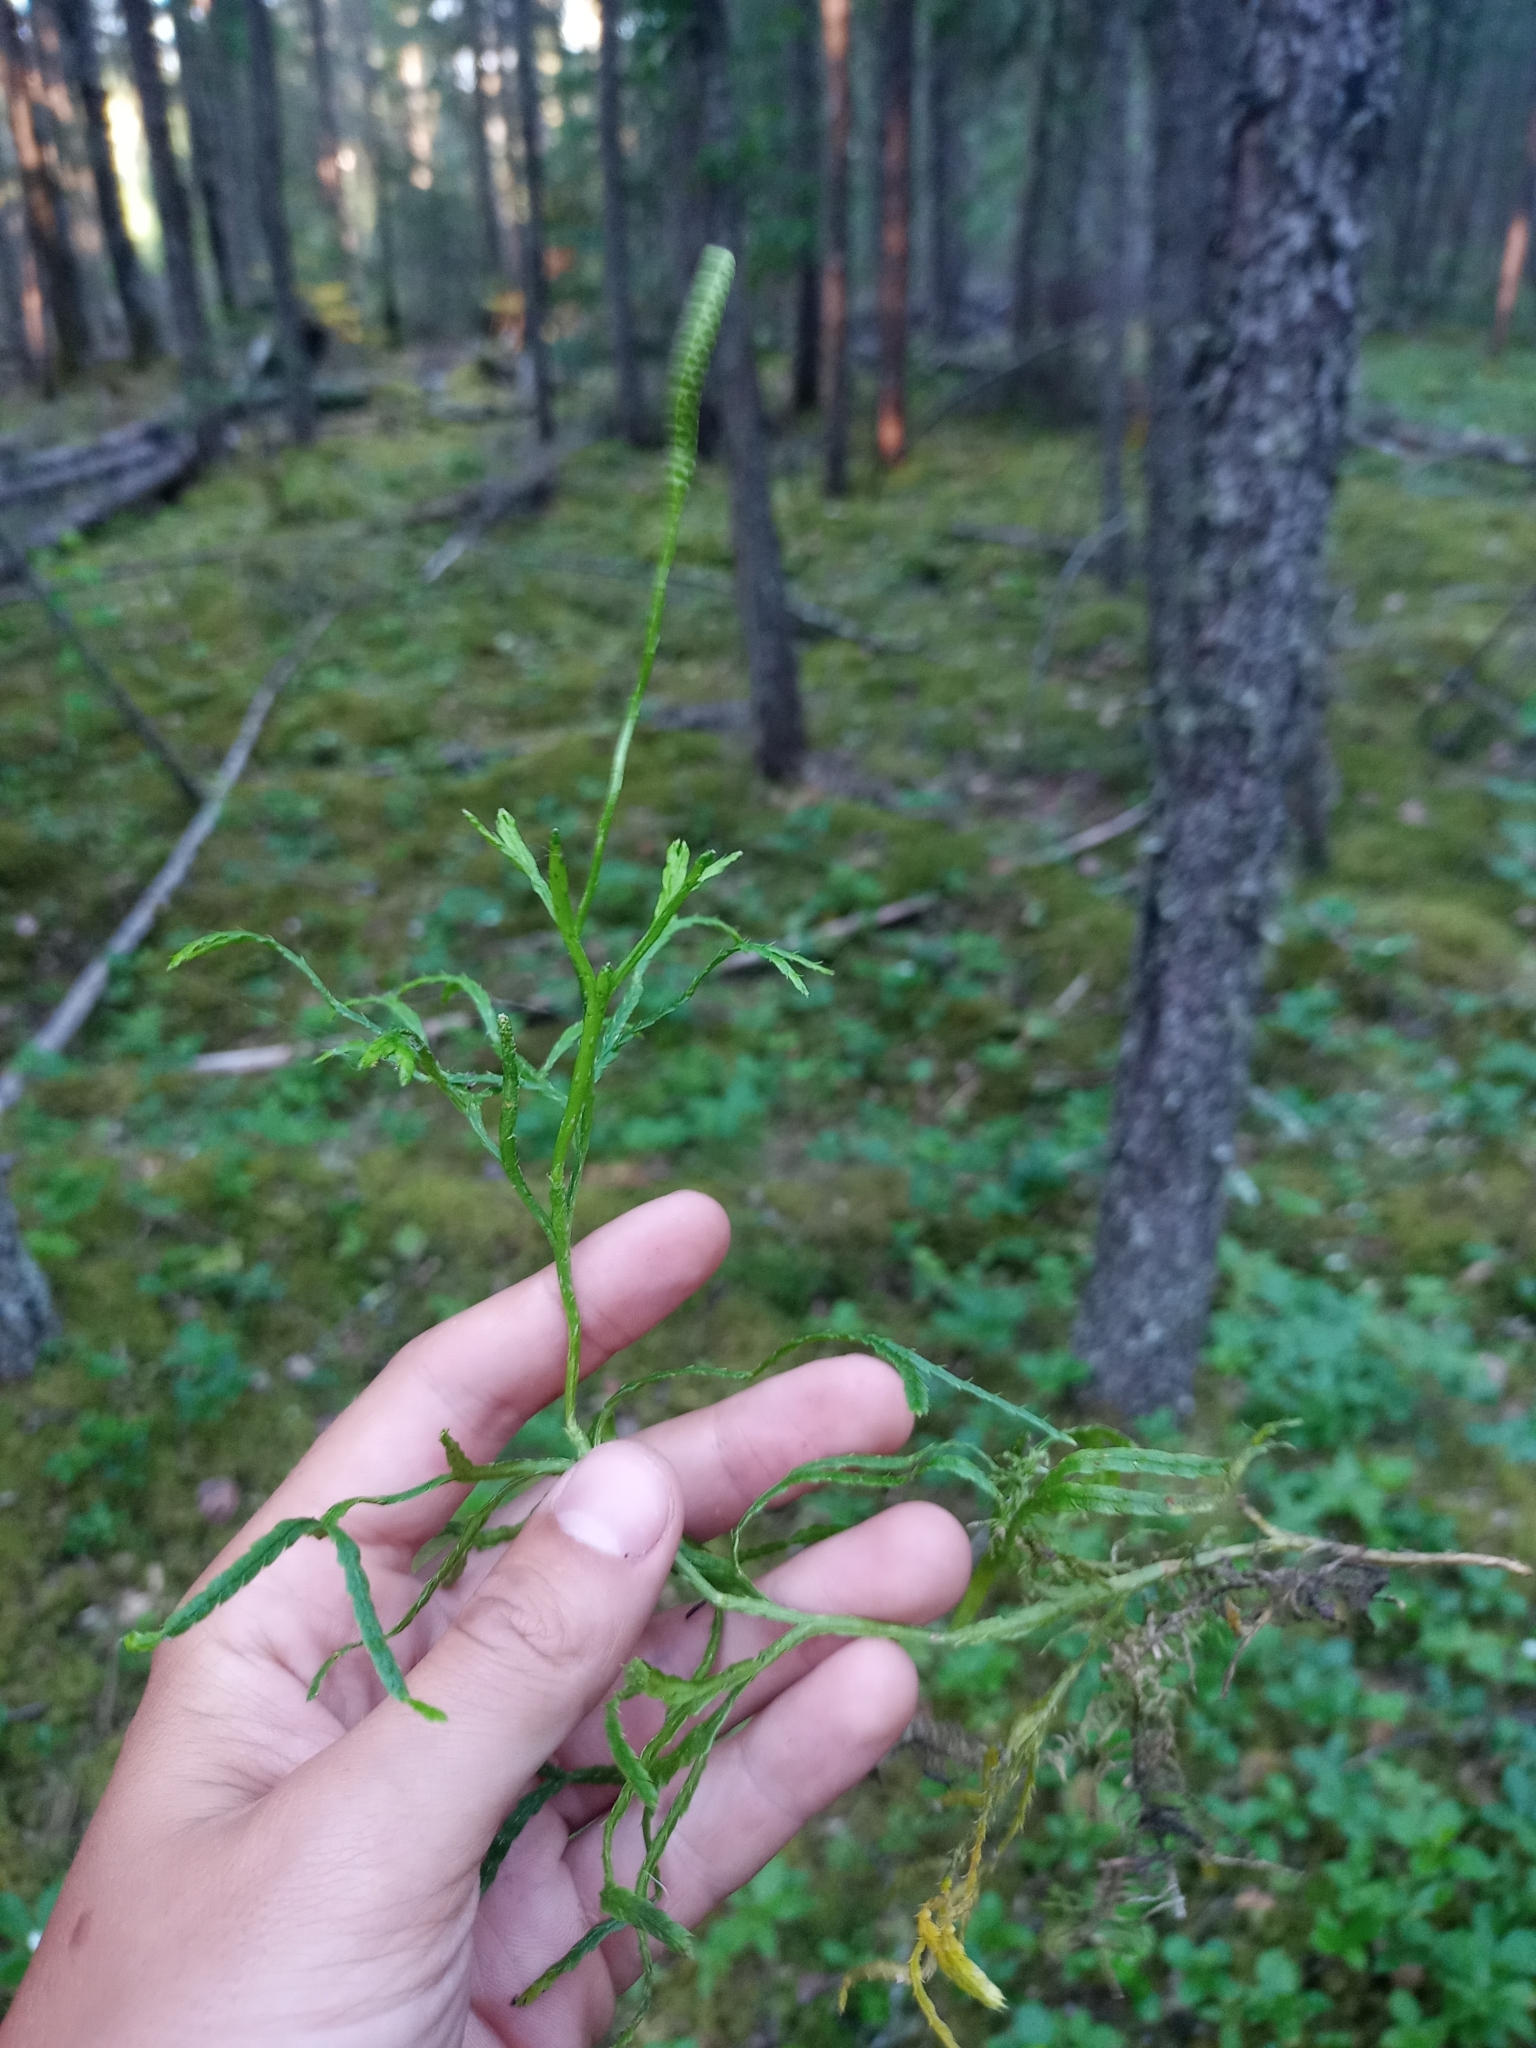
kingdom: Plantae
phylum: Tracheophyta
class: Lycopodiopsida
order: Lycopodiales
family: Lycopodiaceae
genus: Diphasiastrum
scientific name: Diphasiastrum complanatum
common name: Northern running-pine
